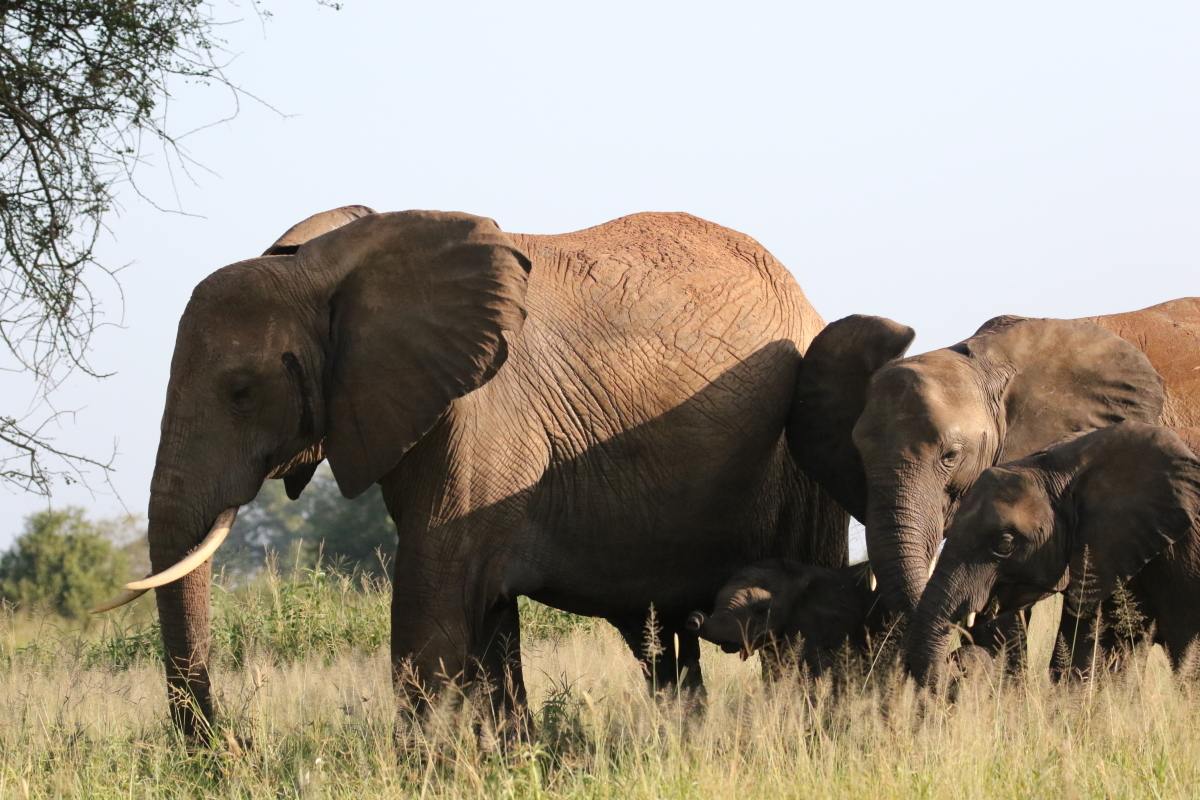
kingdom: Animalia
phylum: Chordata
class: Mammalia
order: Proboscidea
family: Elephantidae
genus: Loxodonta
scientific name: Loxodonta africana
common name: African elephant
